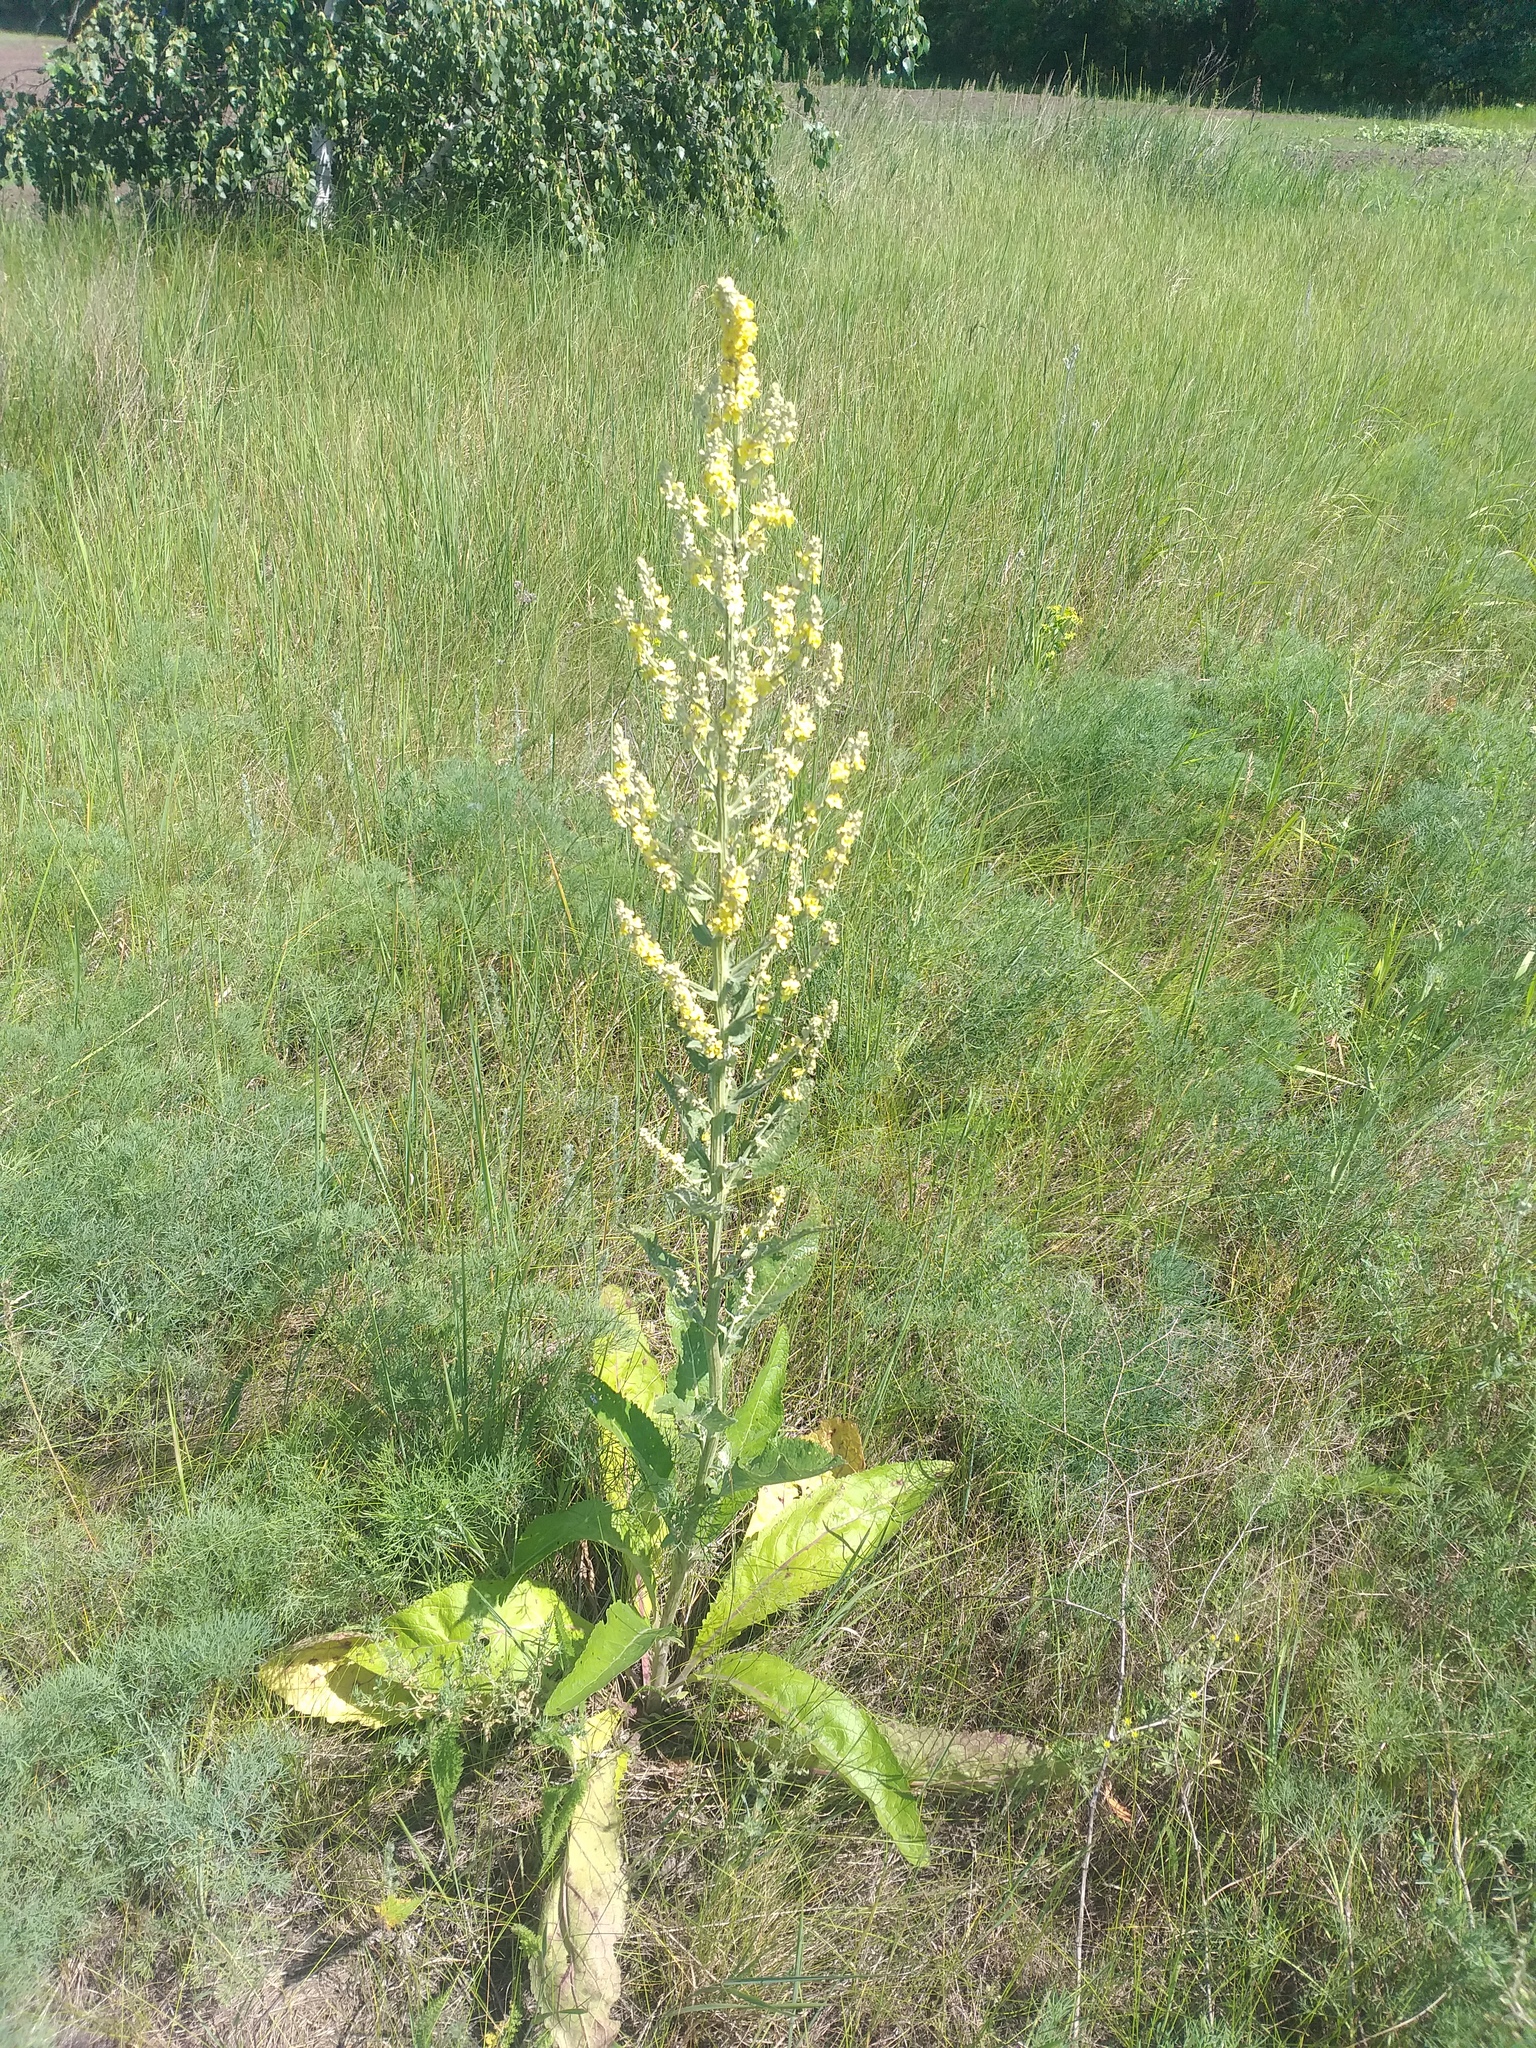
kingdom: Plantae
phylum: Tracheophyta
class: Magnoliopsida
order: Lamiales
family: Scrophulariaceae
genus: Verbascum
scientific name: Verbascum lychnitis
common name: White mullein
